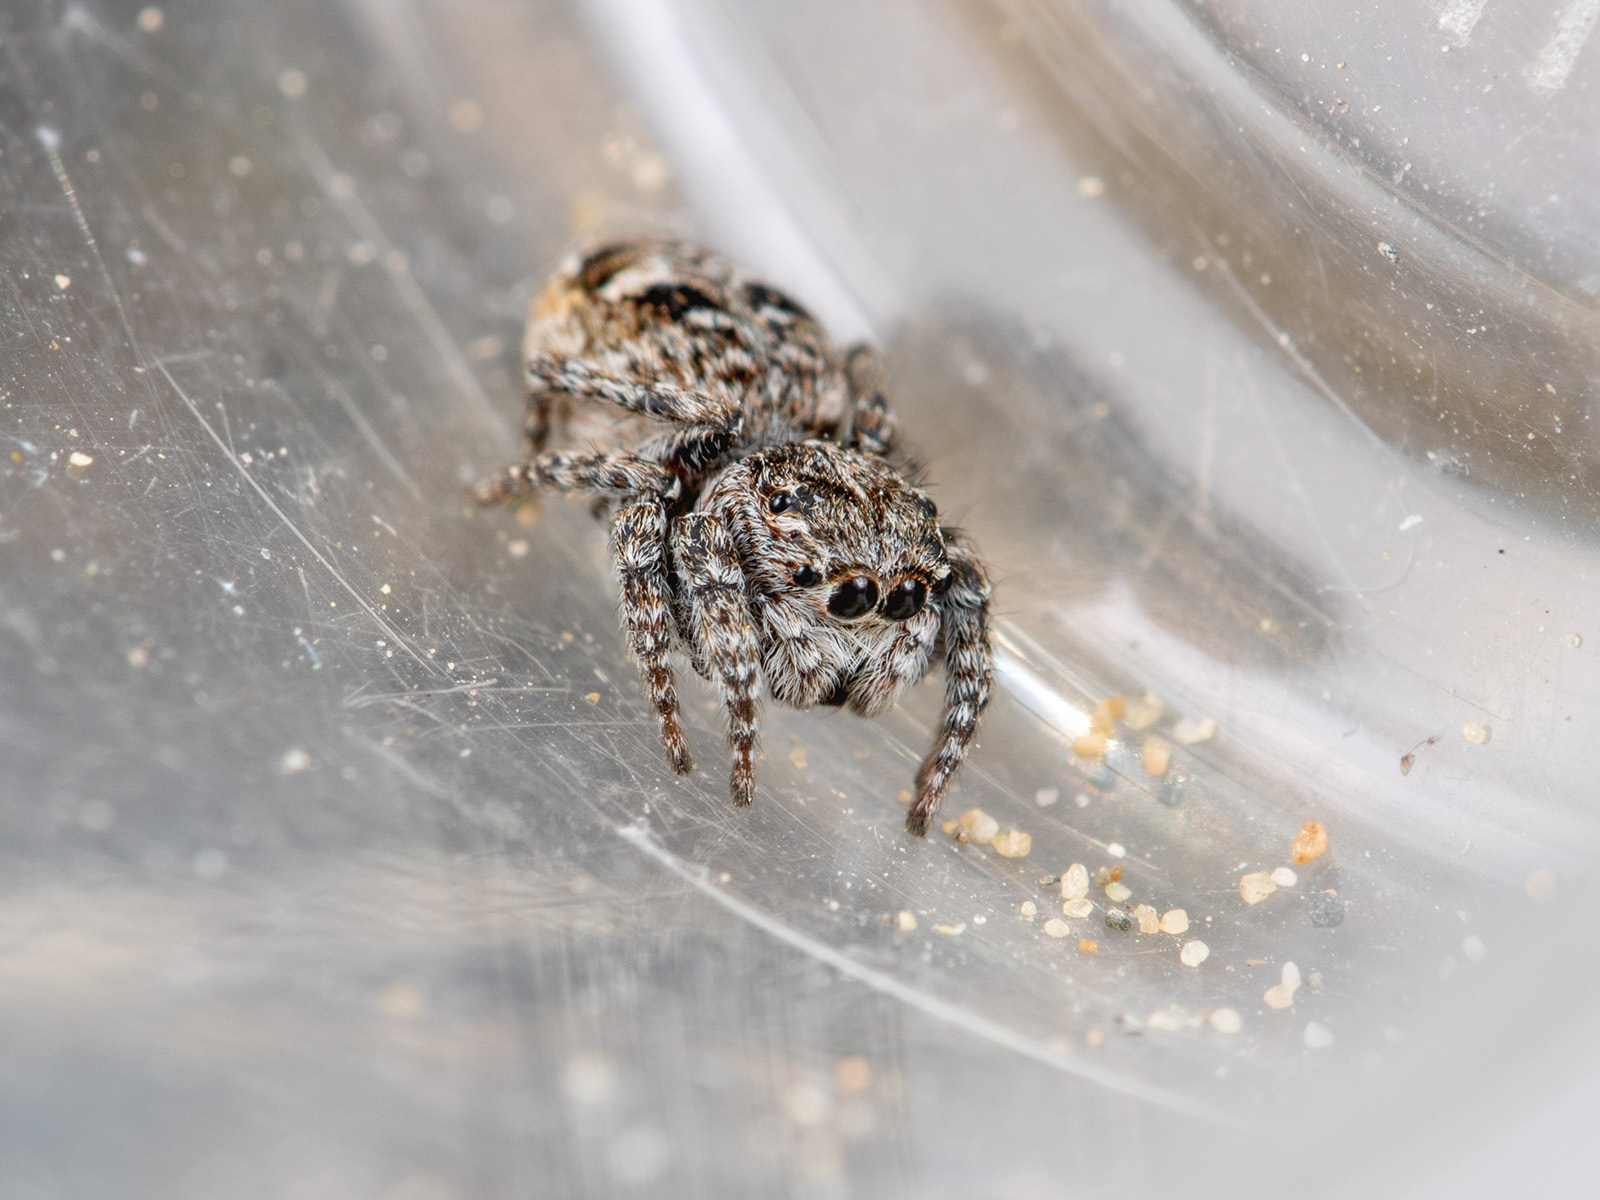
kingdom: Animalia
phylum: Arthropoda
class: Arachnida
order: Araneae
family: Salticidae
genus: Attulus
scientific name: Attulus inexpectus
